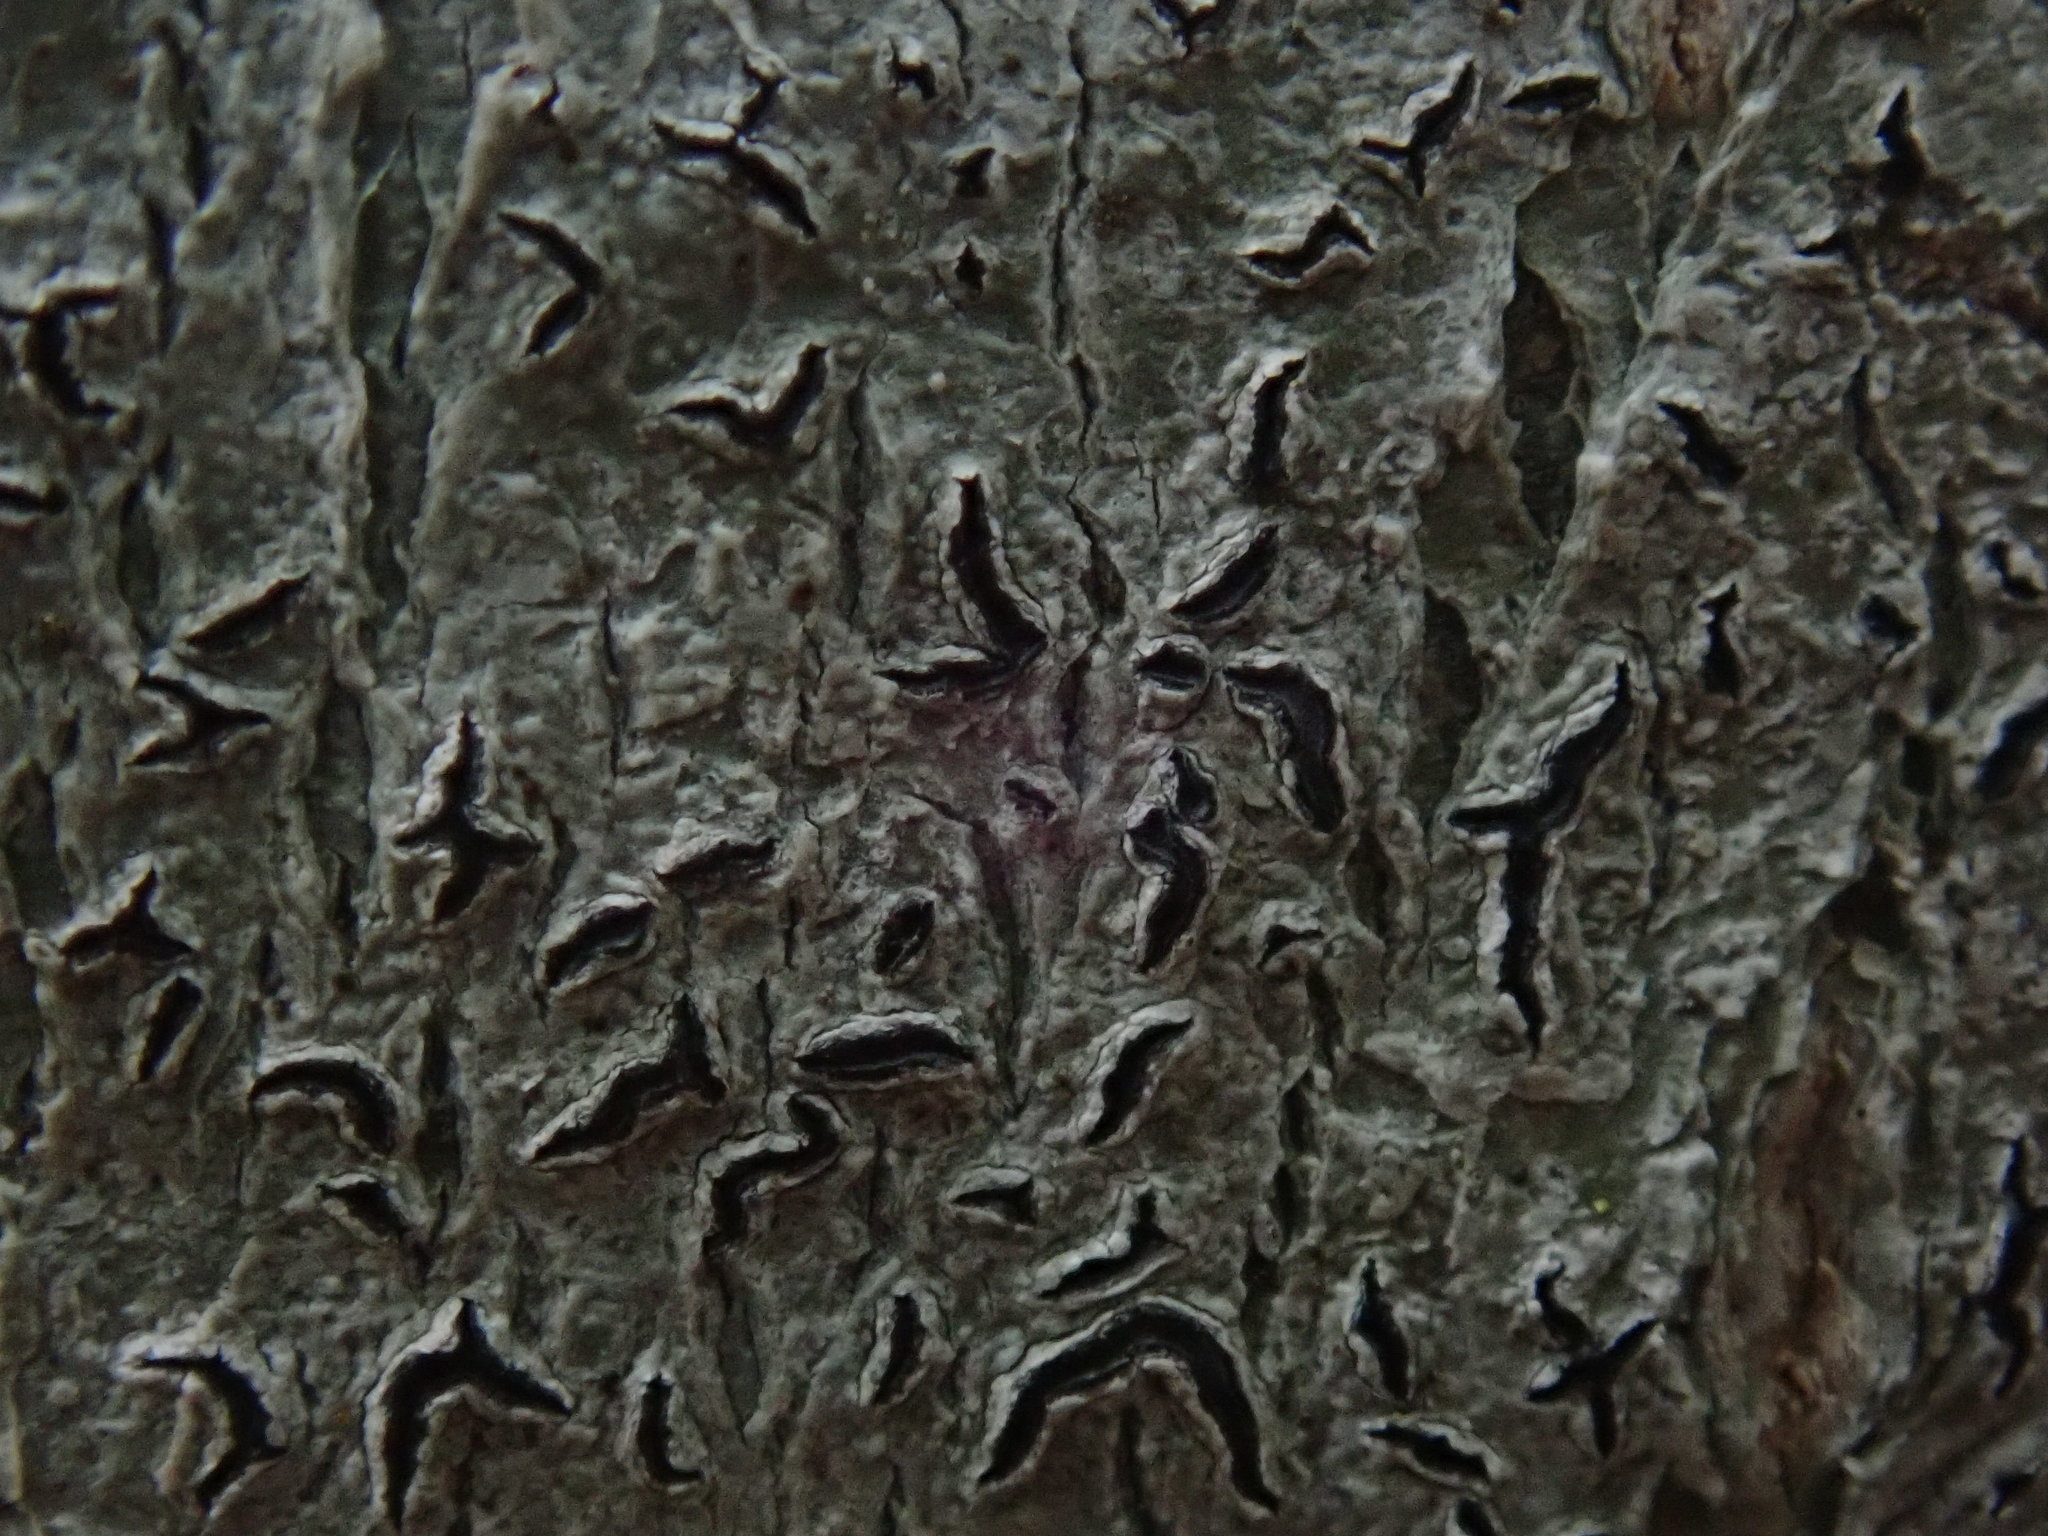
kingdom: Fungi
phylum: Ascomycota
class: Lecanoromycetes
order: Ostropales
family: Graphidaceae
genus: Graphis
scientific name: Graphis scripta
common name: Script lichen
